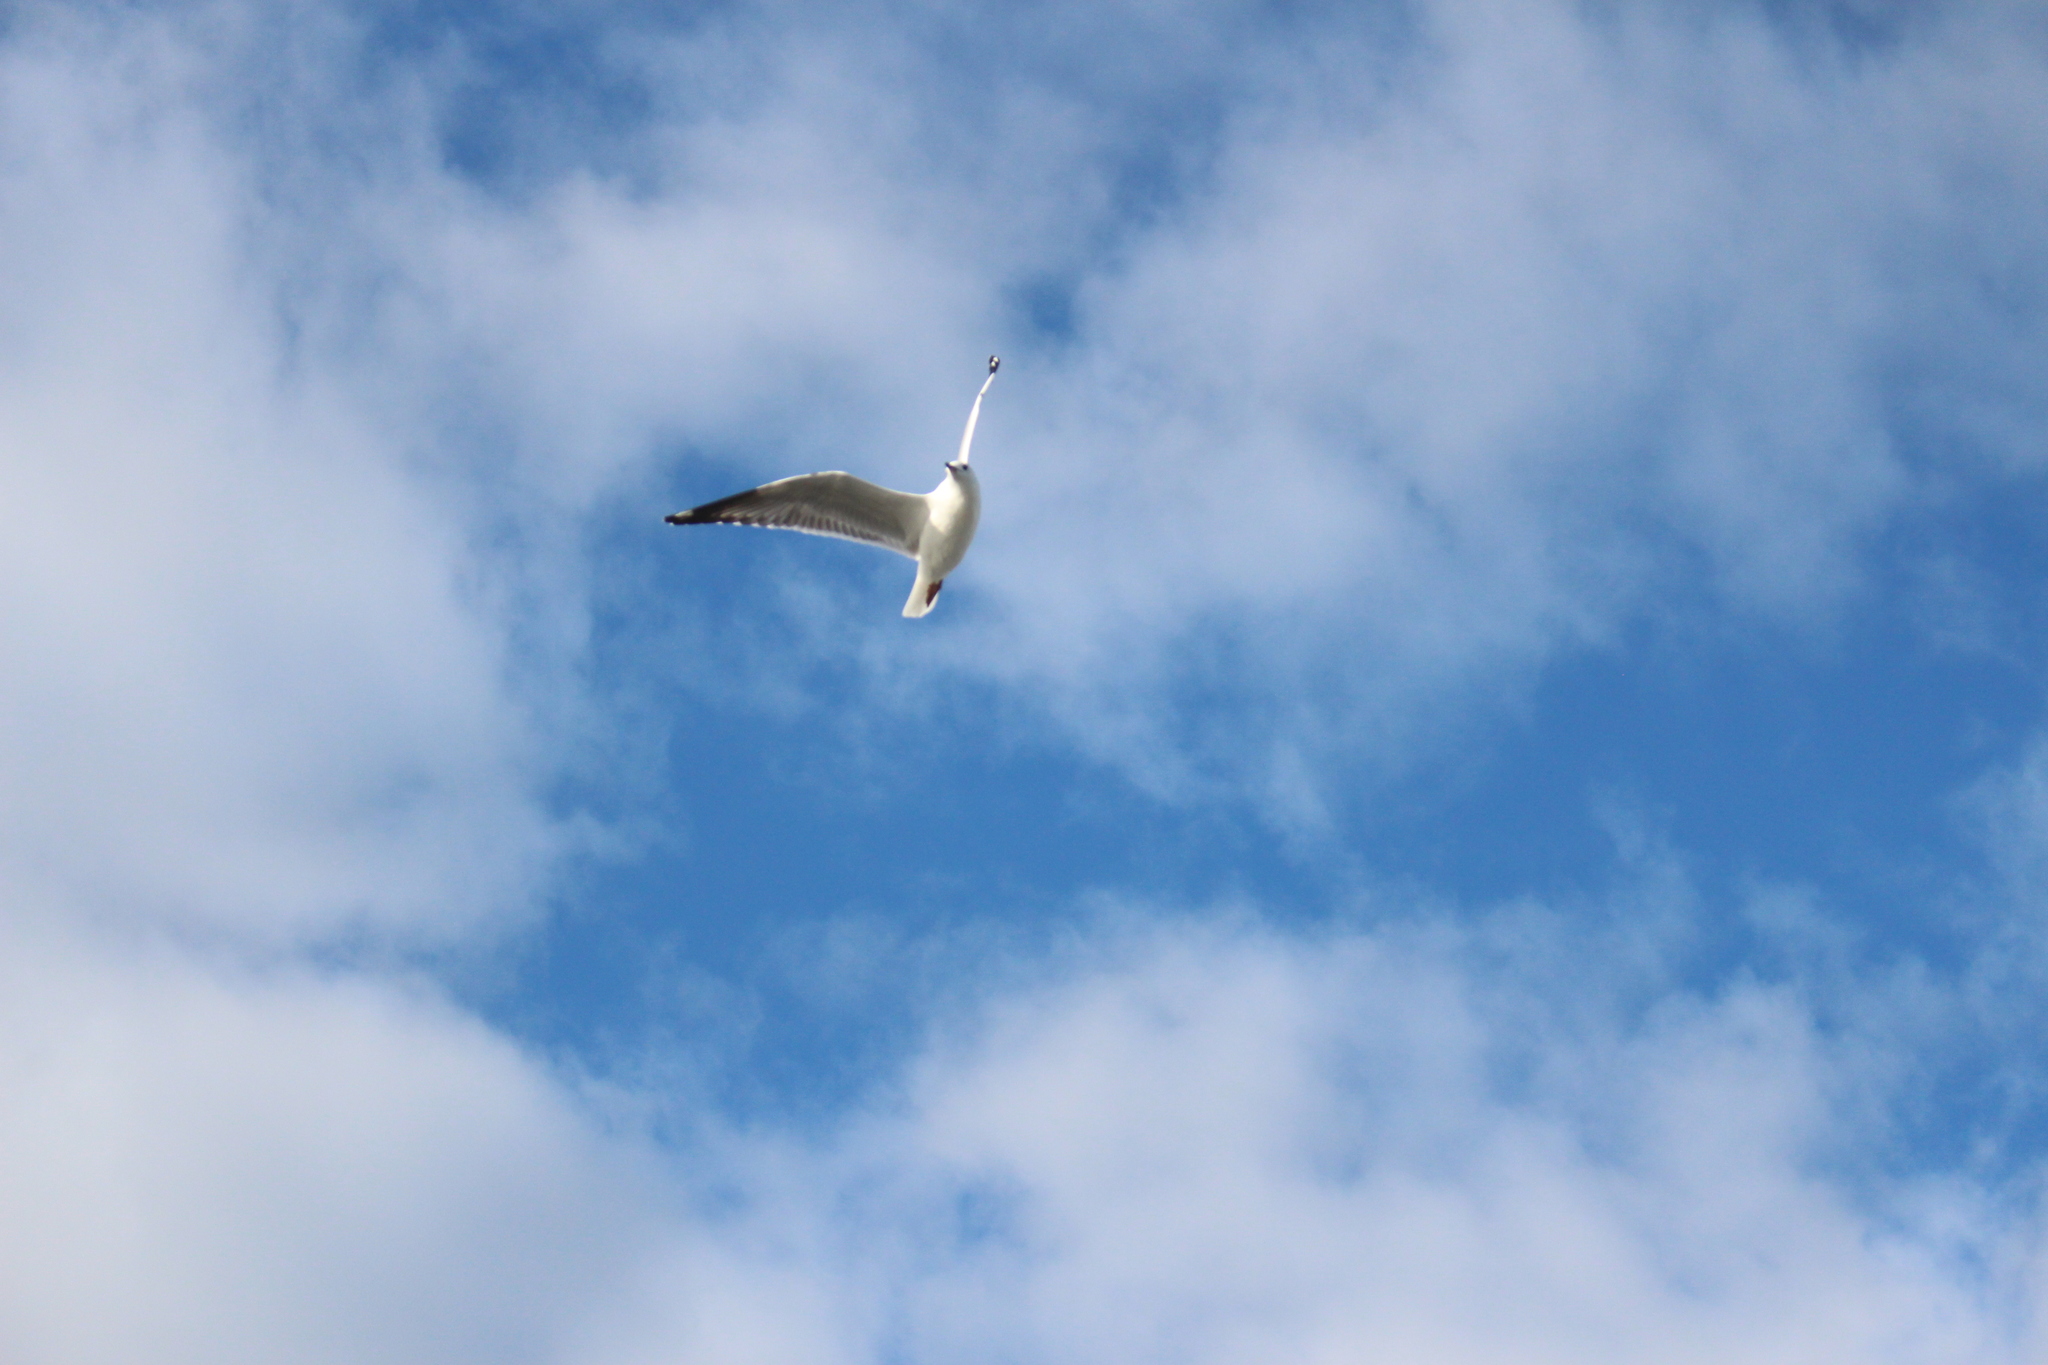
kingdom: Animalia
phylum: Chordata
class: Aves
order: Charadriiformes
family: Laridae
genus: Chroicocephalus
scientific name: Chroicocephalus novaehollandiae
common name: Silver gull
